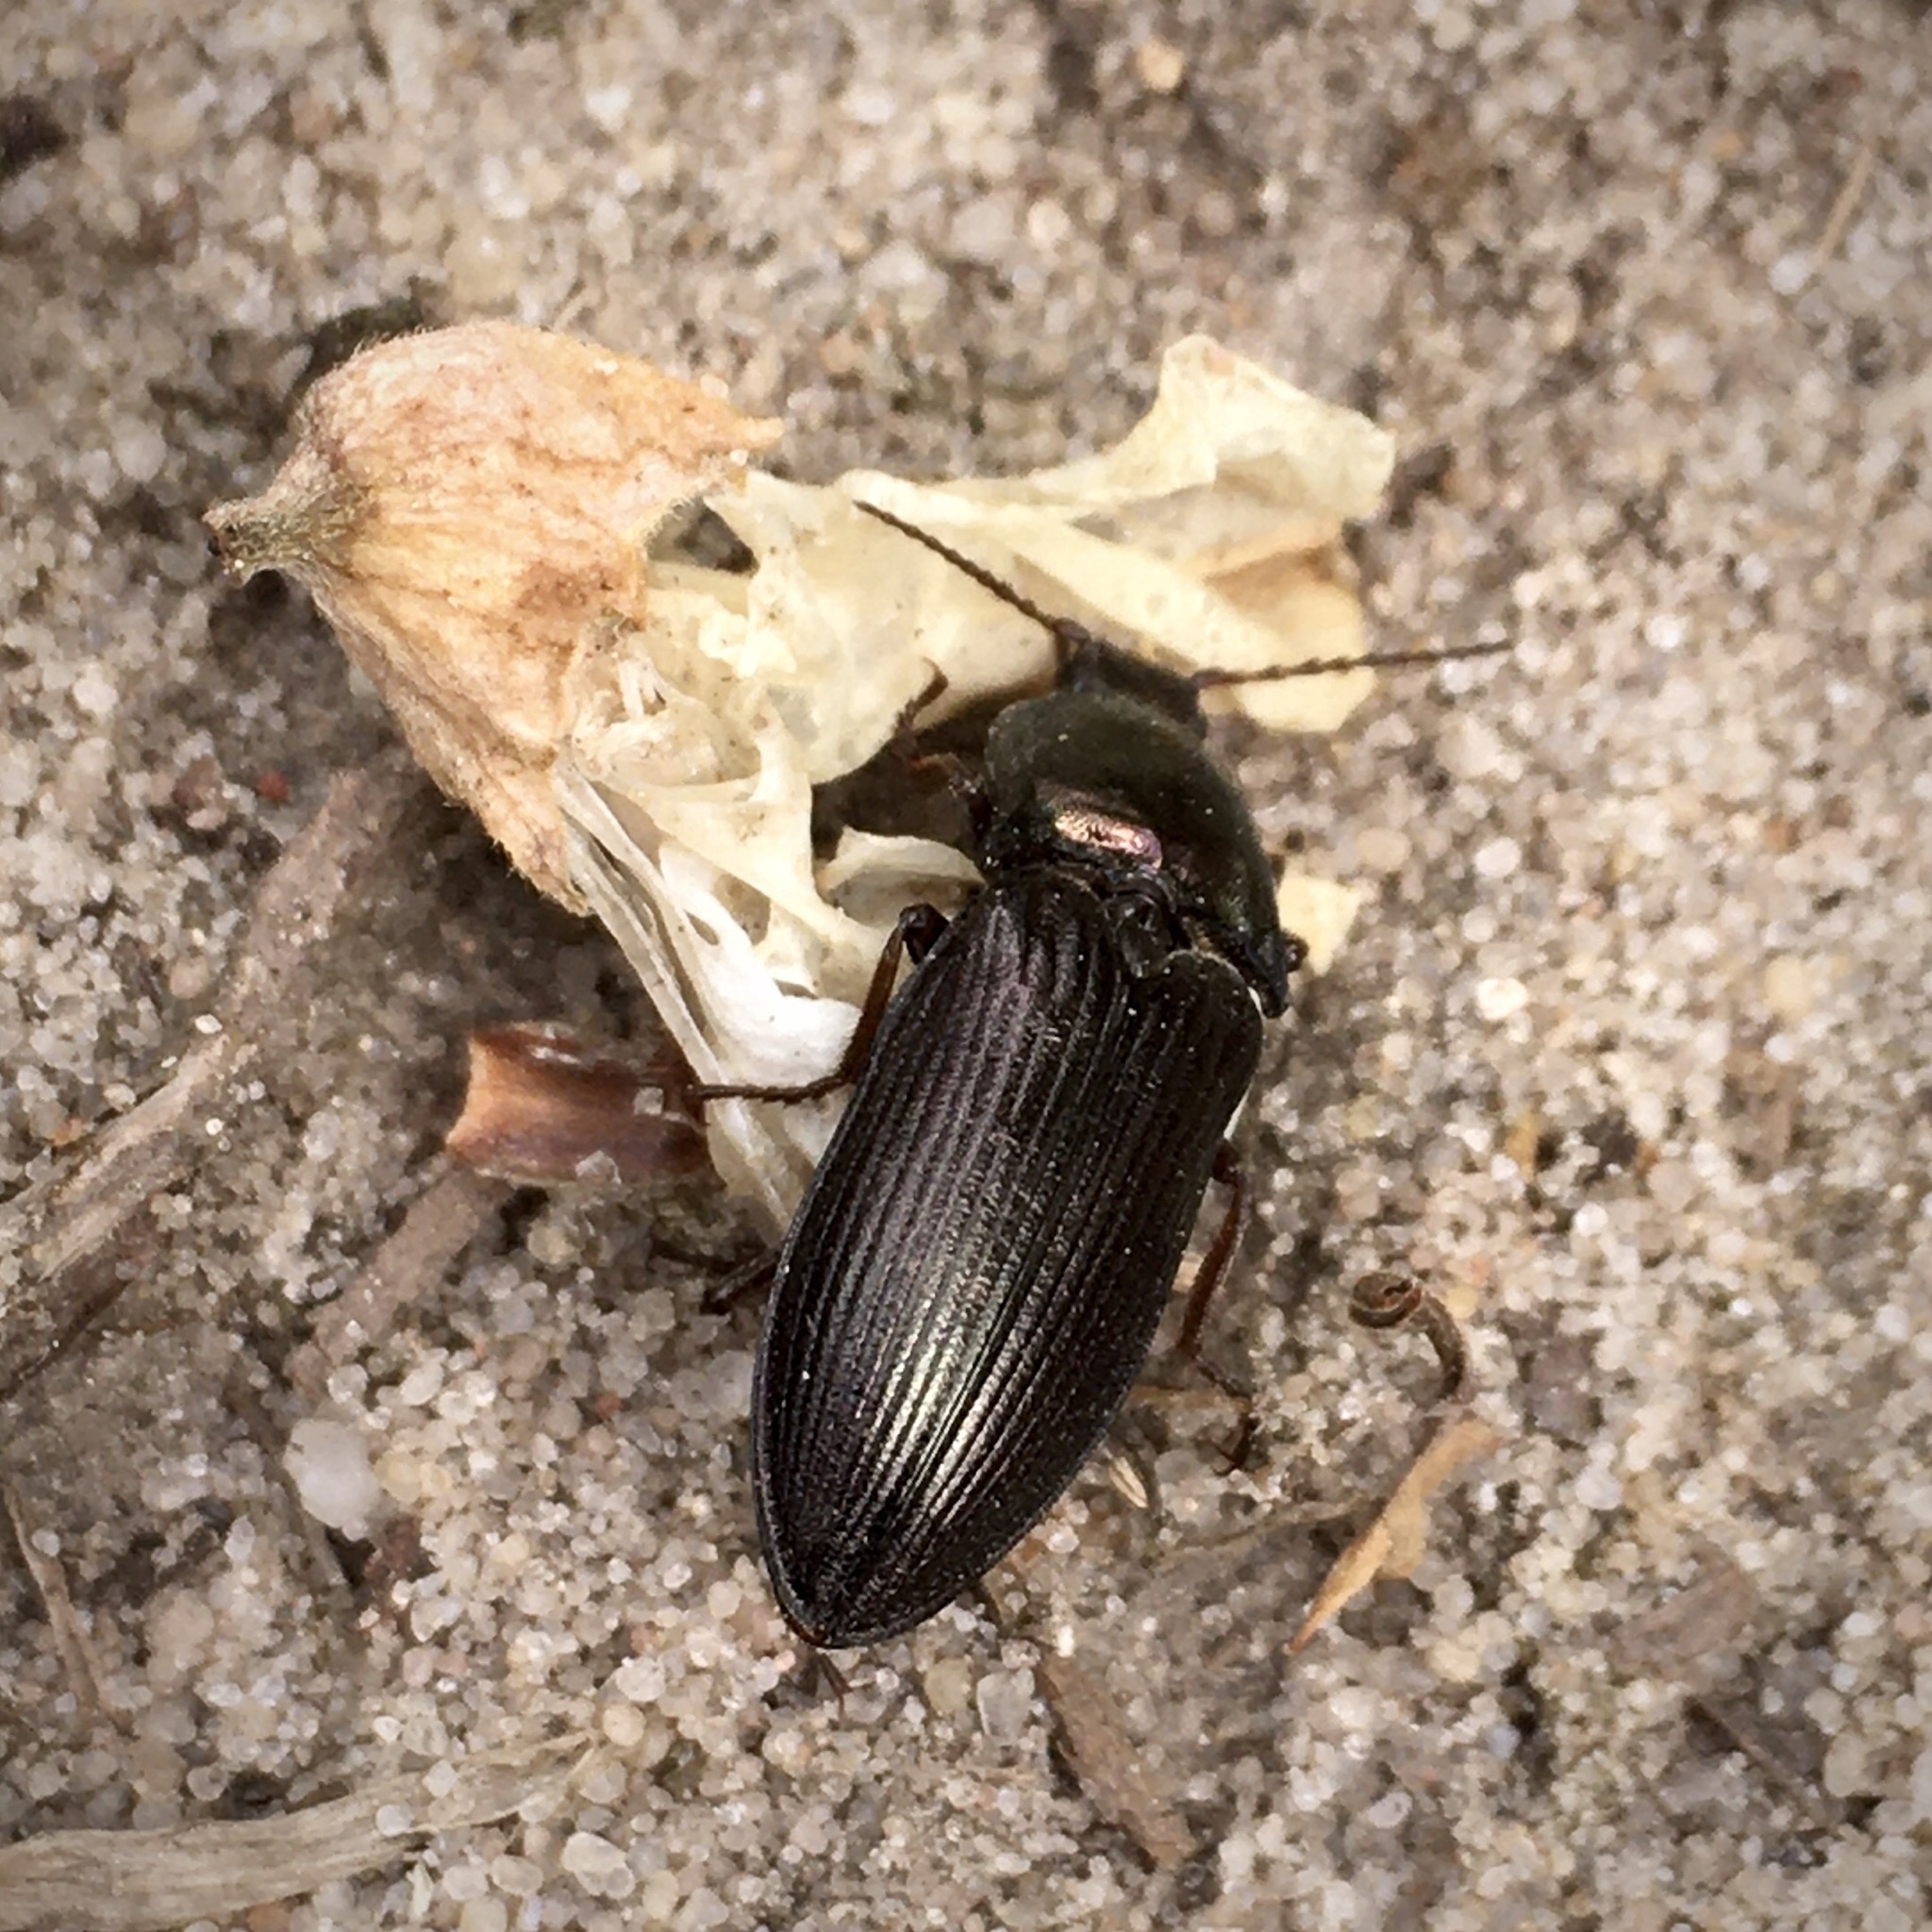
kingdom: Animalia
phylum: Arthropoda
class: Insecta
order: Coleoptera
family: Elateridae
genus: Selatosomus
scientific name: Selatosomus aeneus
